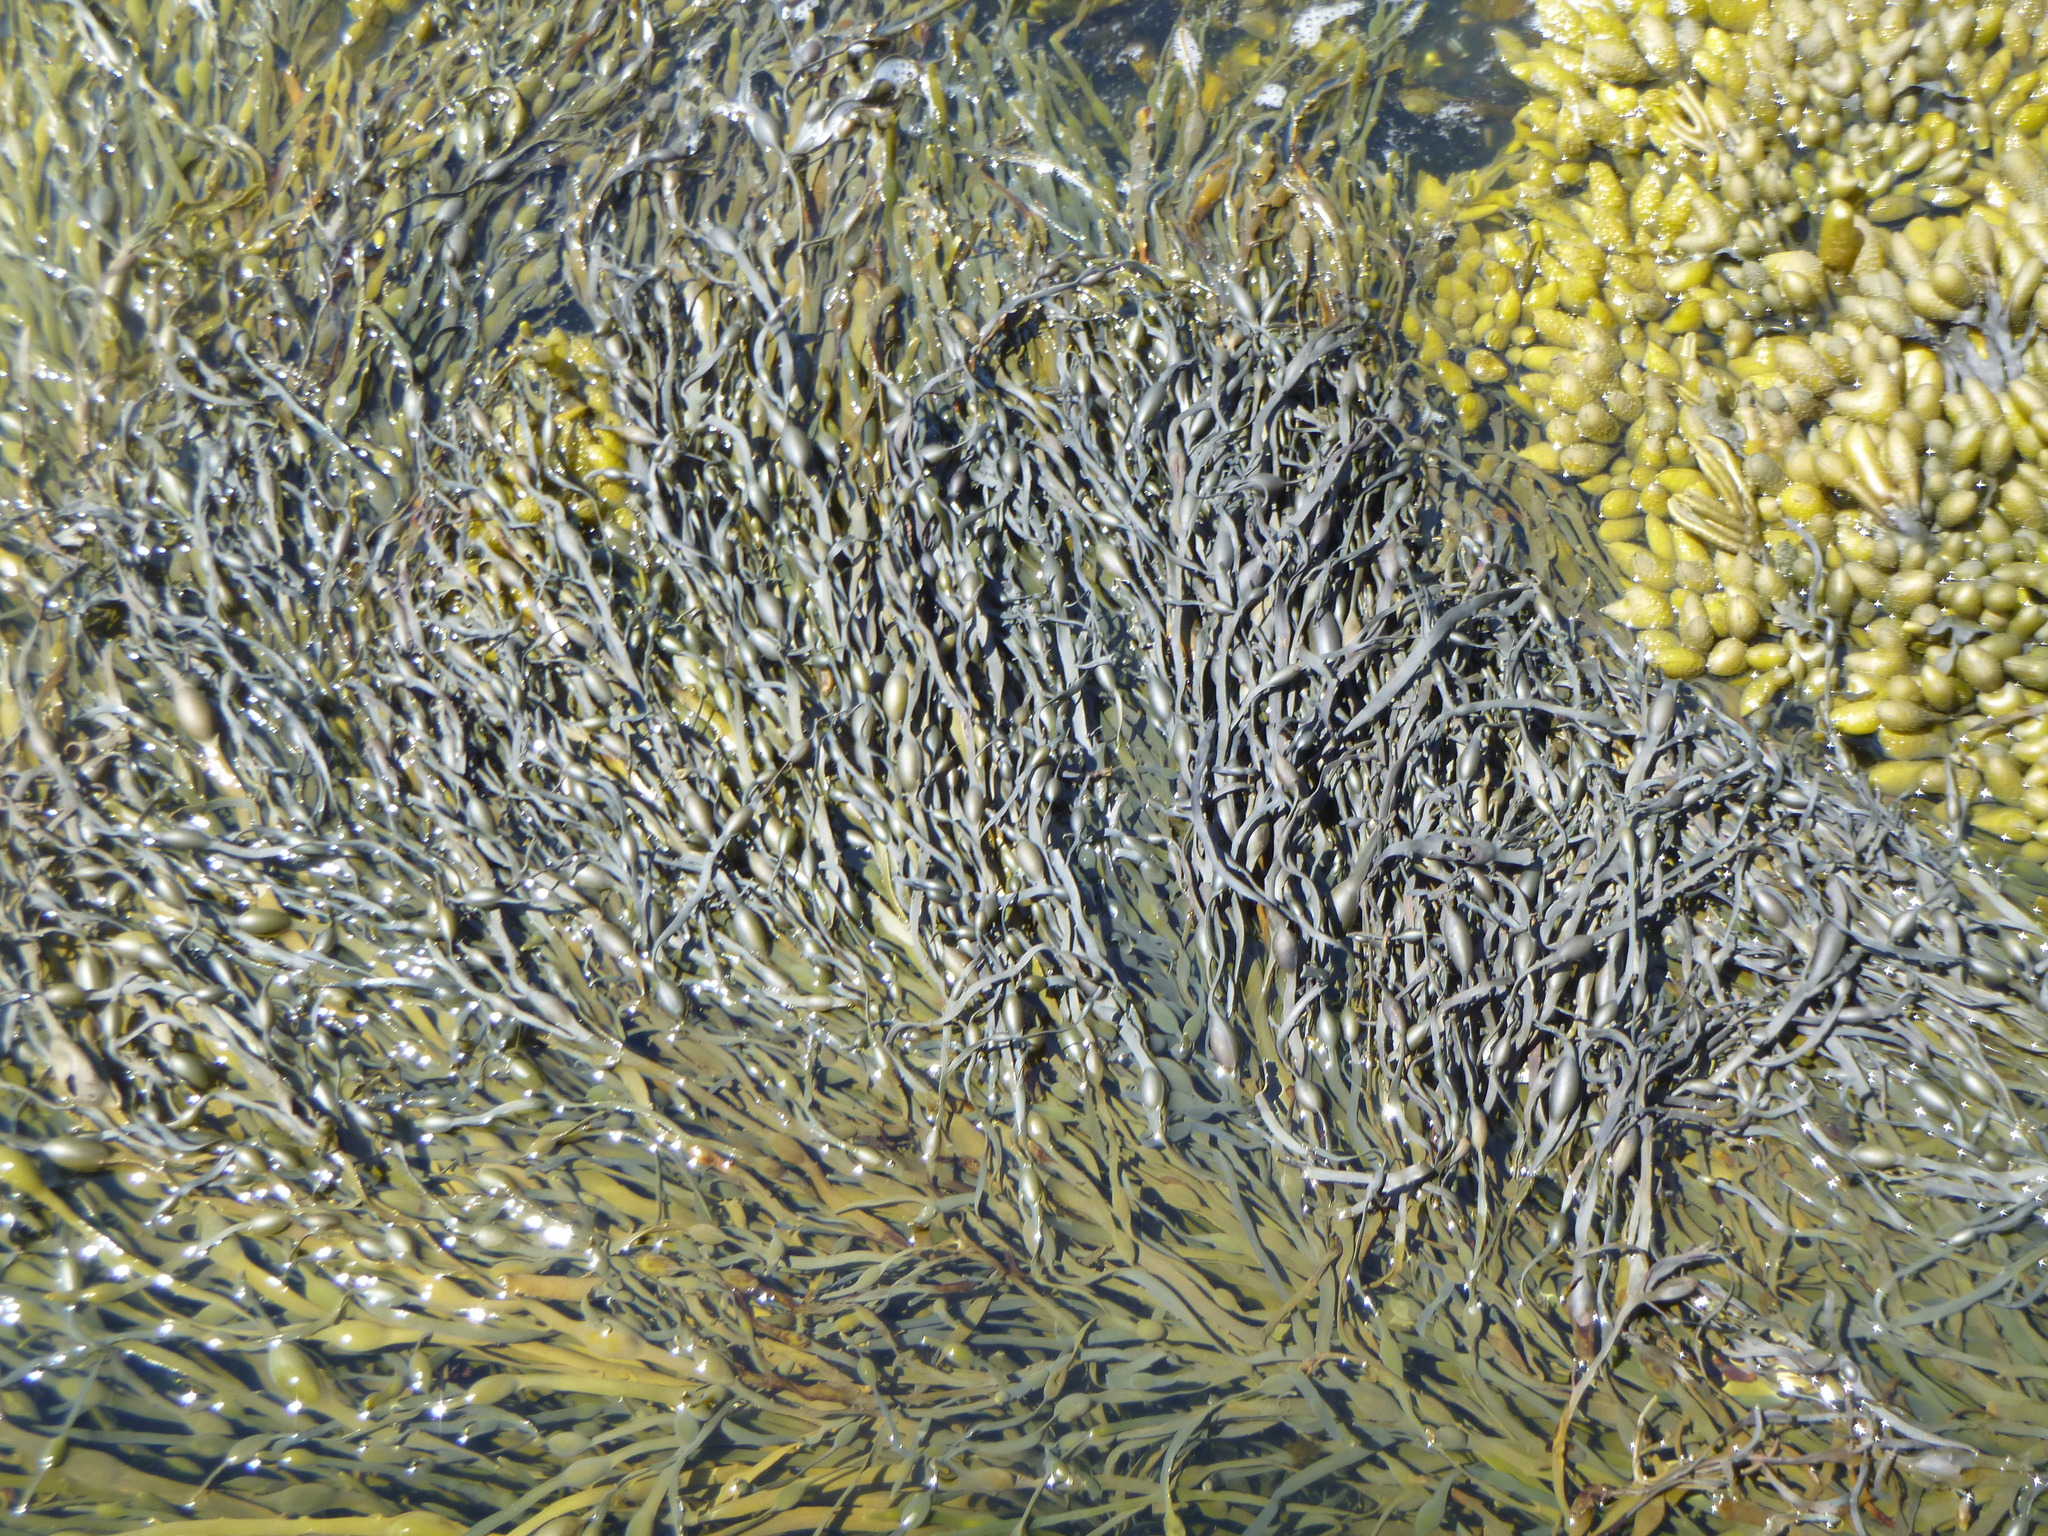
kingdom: Chromista
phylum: Ochrophyta
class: Phaeophyceae
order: Fucales
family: Fucaceae
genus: Ascophyllum
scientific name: Ascophyllum nodosum
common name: Knotted wrack
